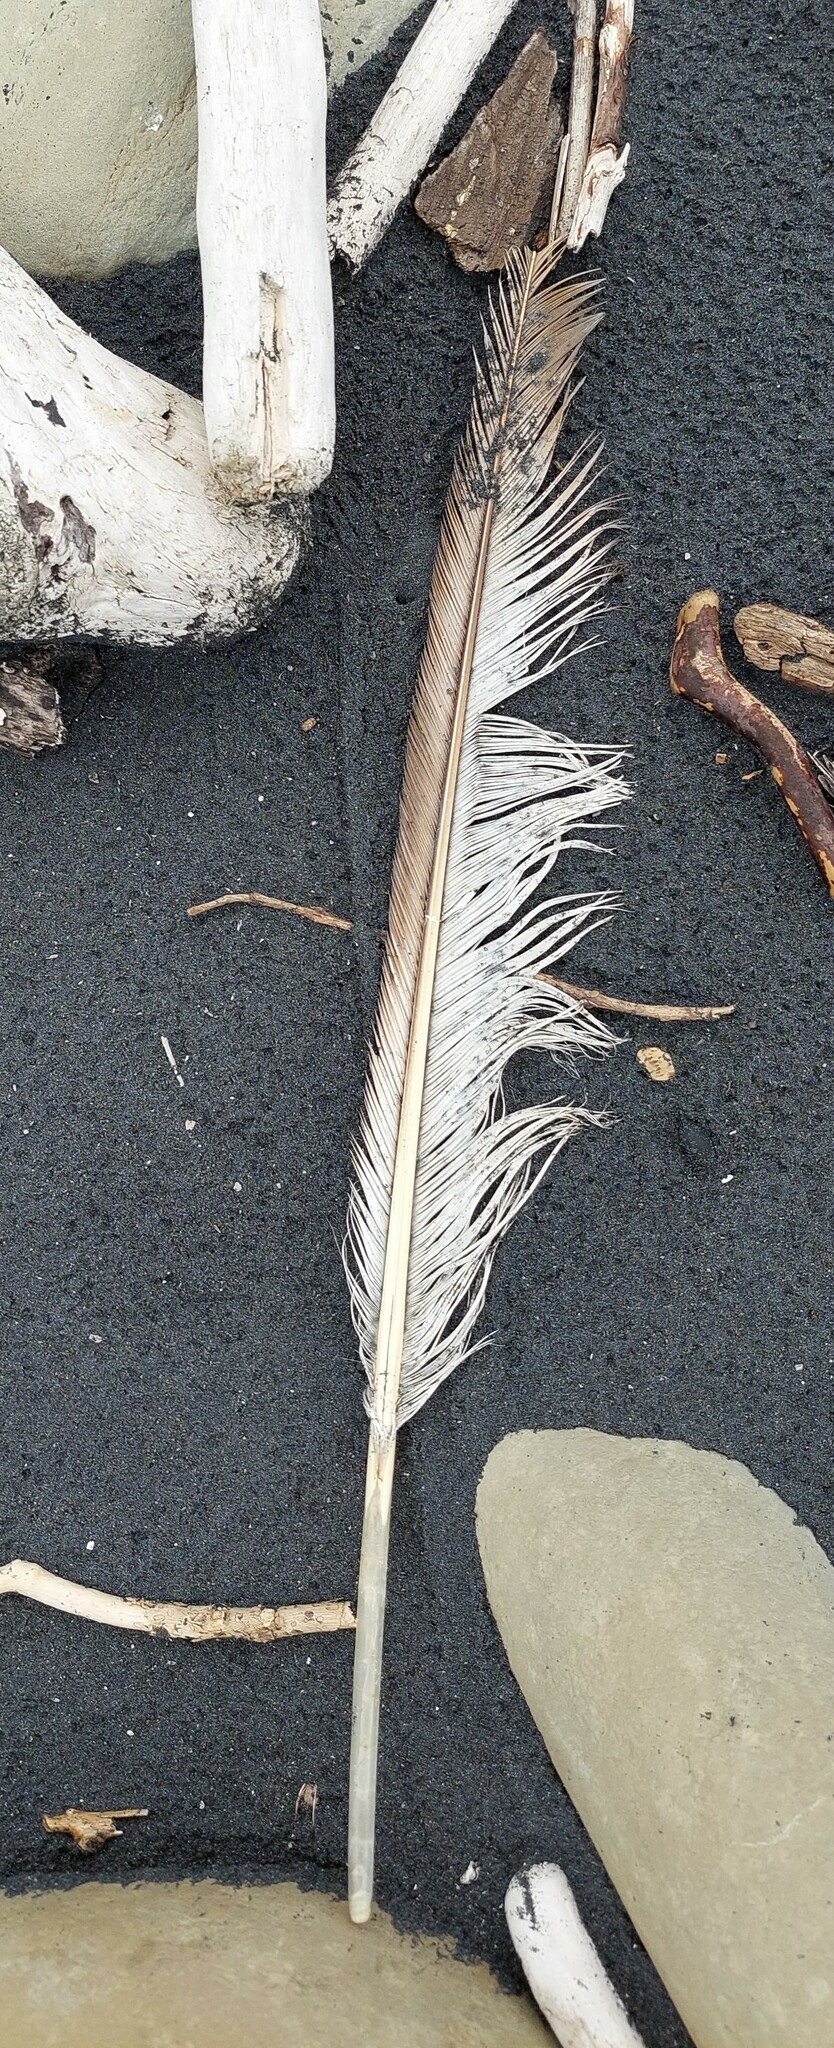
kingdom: Animalia
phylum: Chordata
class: Aves
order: Charadriiformes
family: Laridae
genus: Larus
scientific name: Larus dominicanus
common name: Kelp gull
